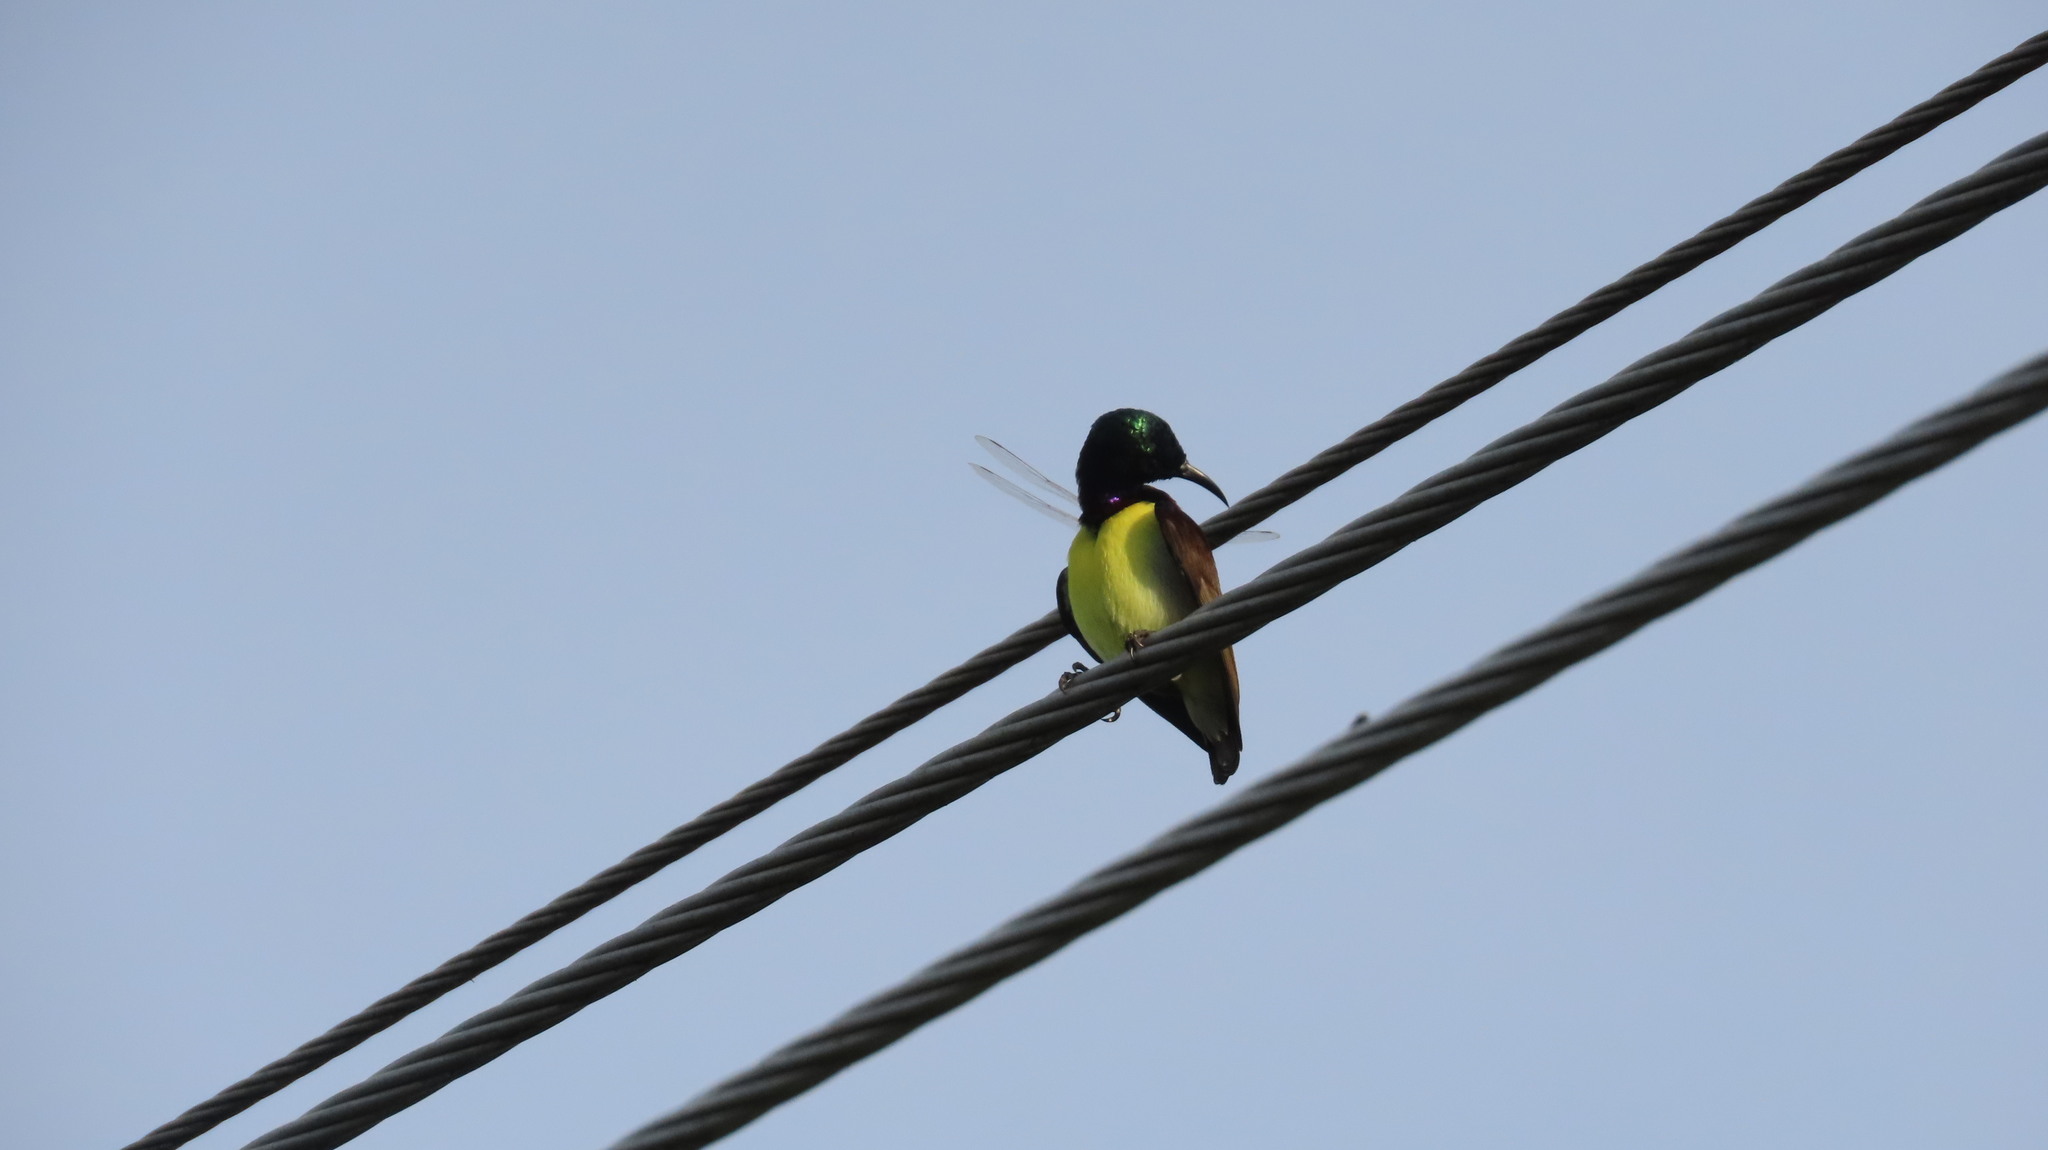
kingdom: Animalia
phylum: Chordata
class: Aves
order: Passeriformes
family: Nectariniidae
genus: Leptocoma
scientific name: Leptocoma zeylonica
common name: Purple-rumped sunbird
